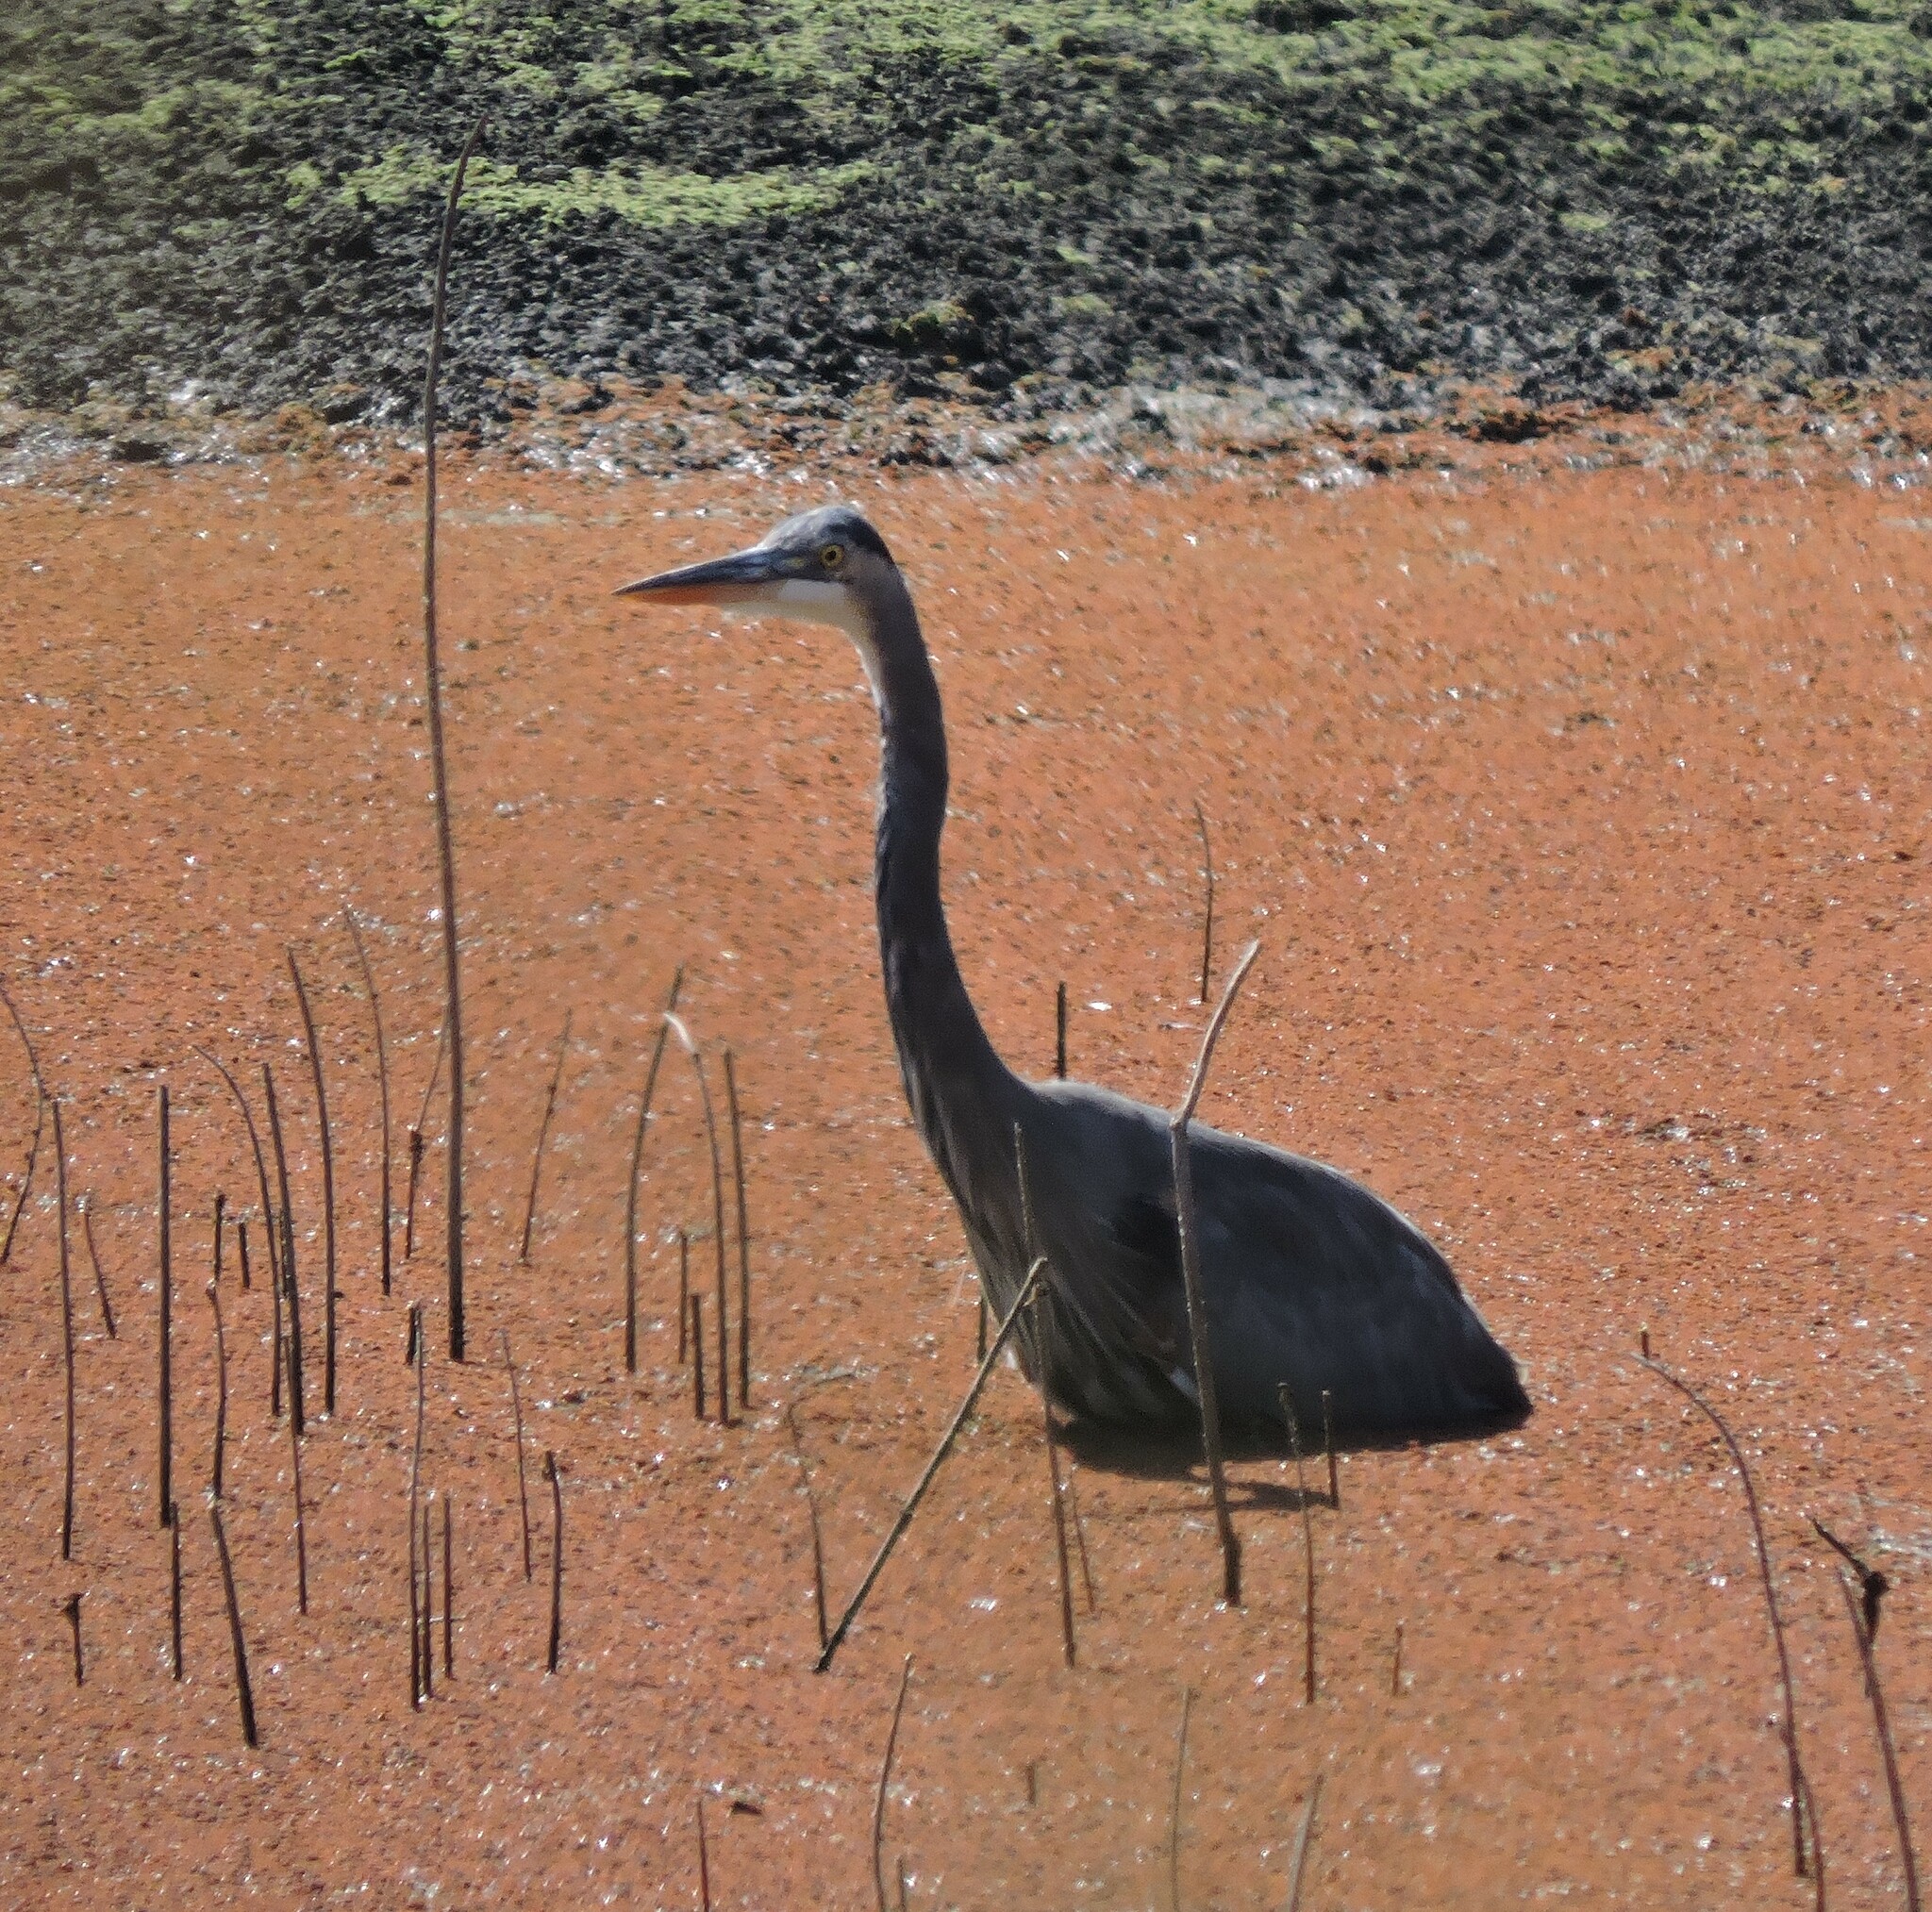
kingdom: Animalia
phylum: Chordata
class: Aves
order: Pelecaniformes
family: Ardeidae
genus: Ardea
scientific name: Ardea herodias
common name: Great blue heron
